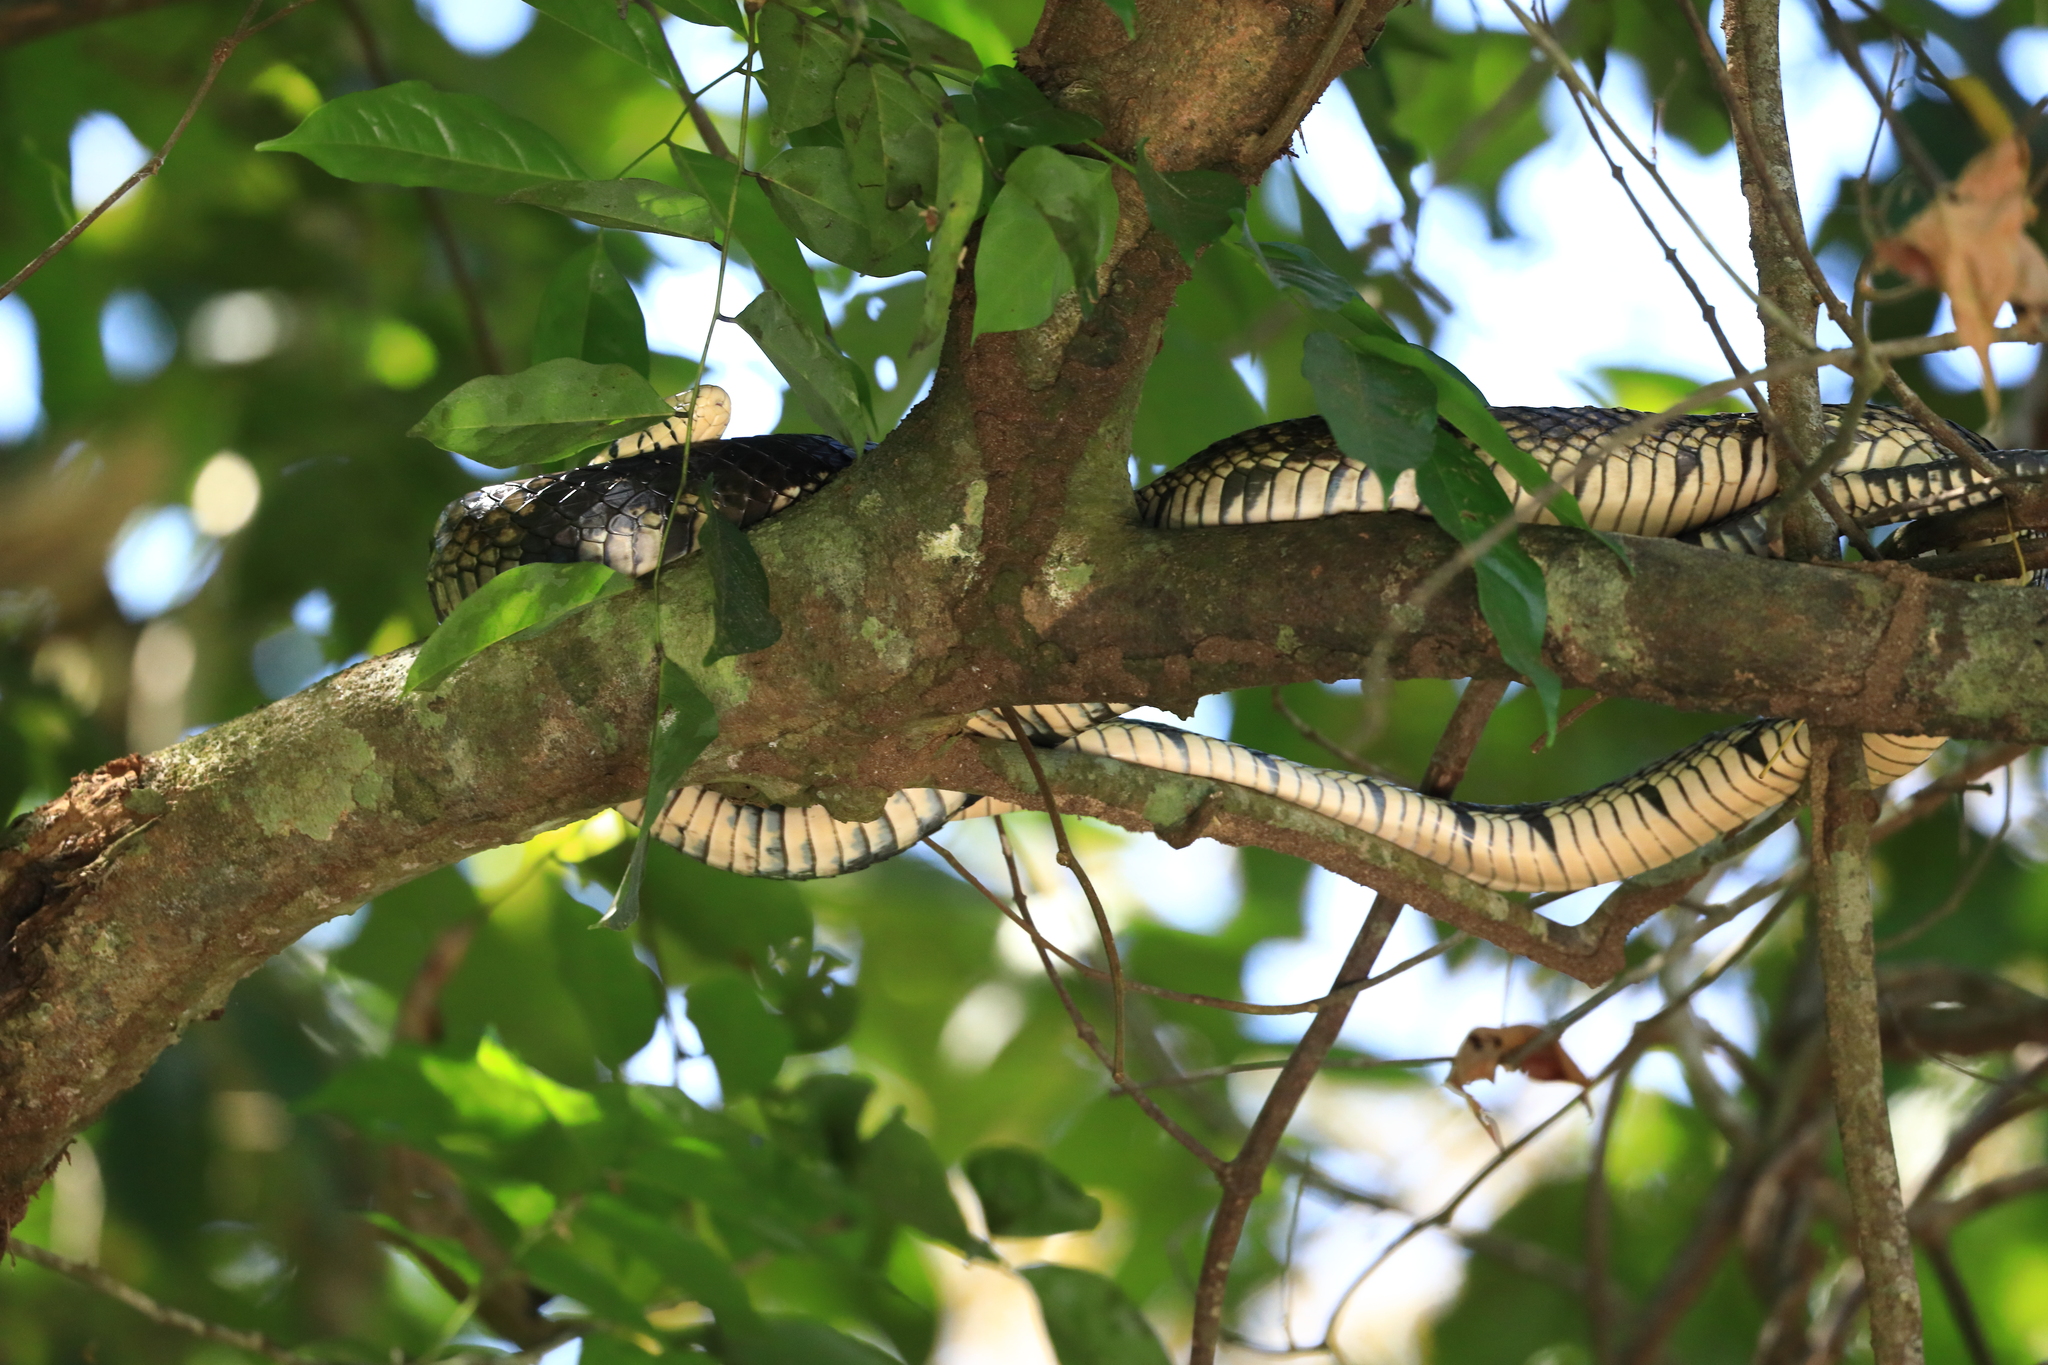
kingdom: Animalia
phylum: Chordata
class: Squamata
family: Colubridae
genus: Spilotes
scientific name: Spilotes pullatus
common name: Chicken snake
